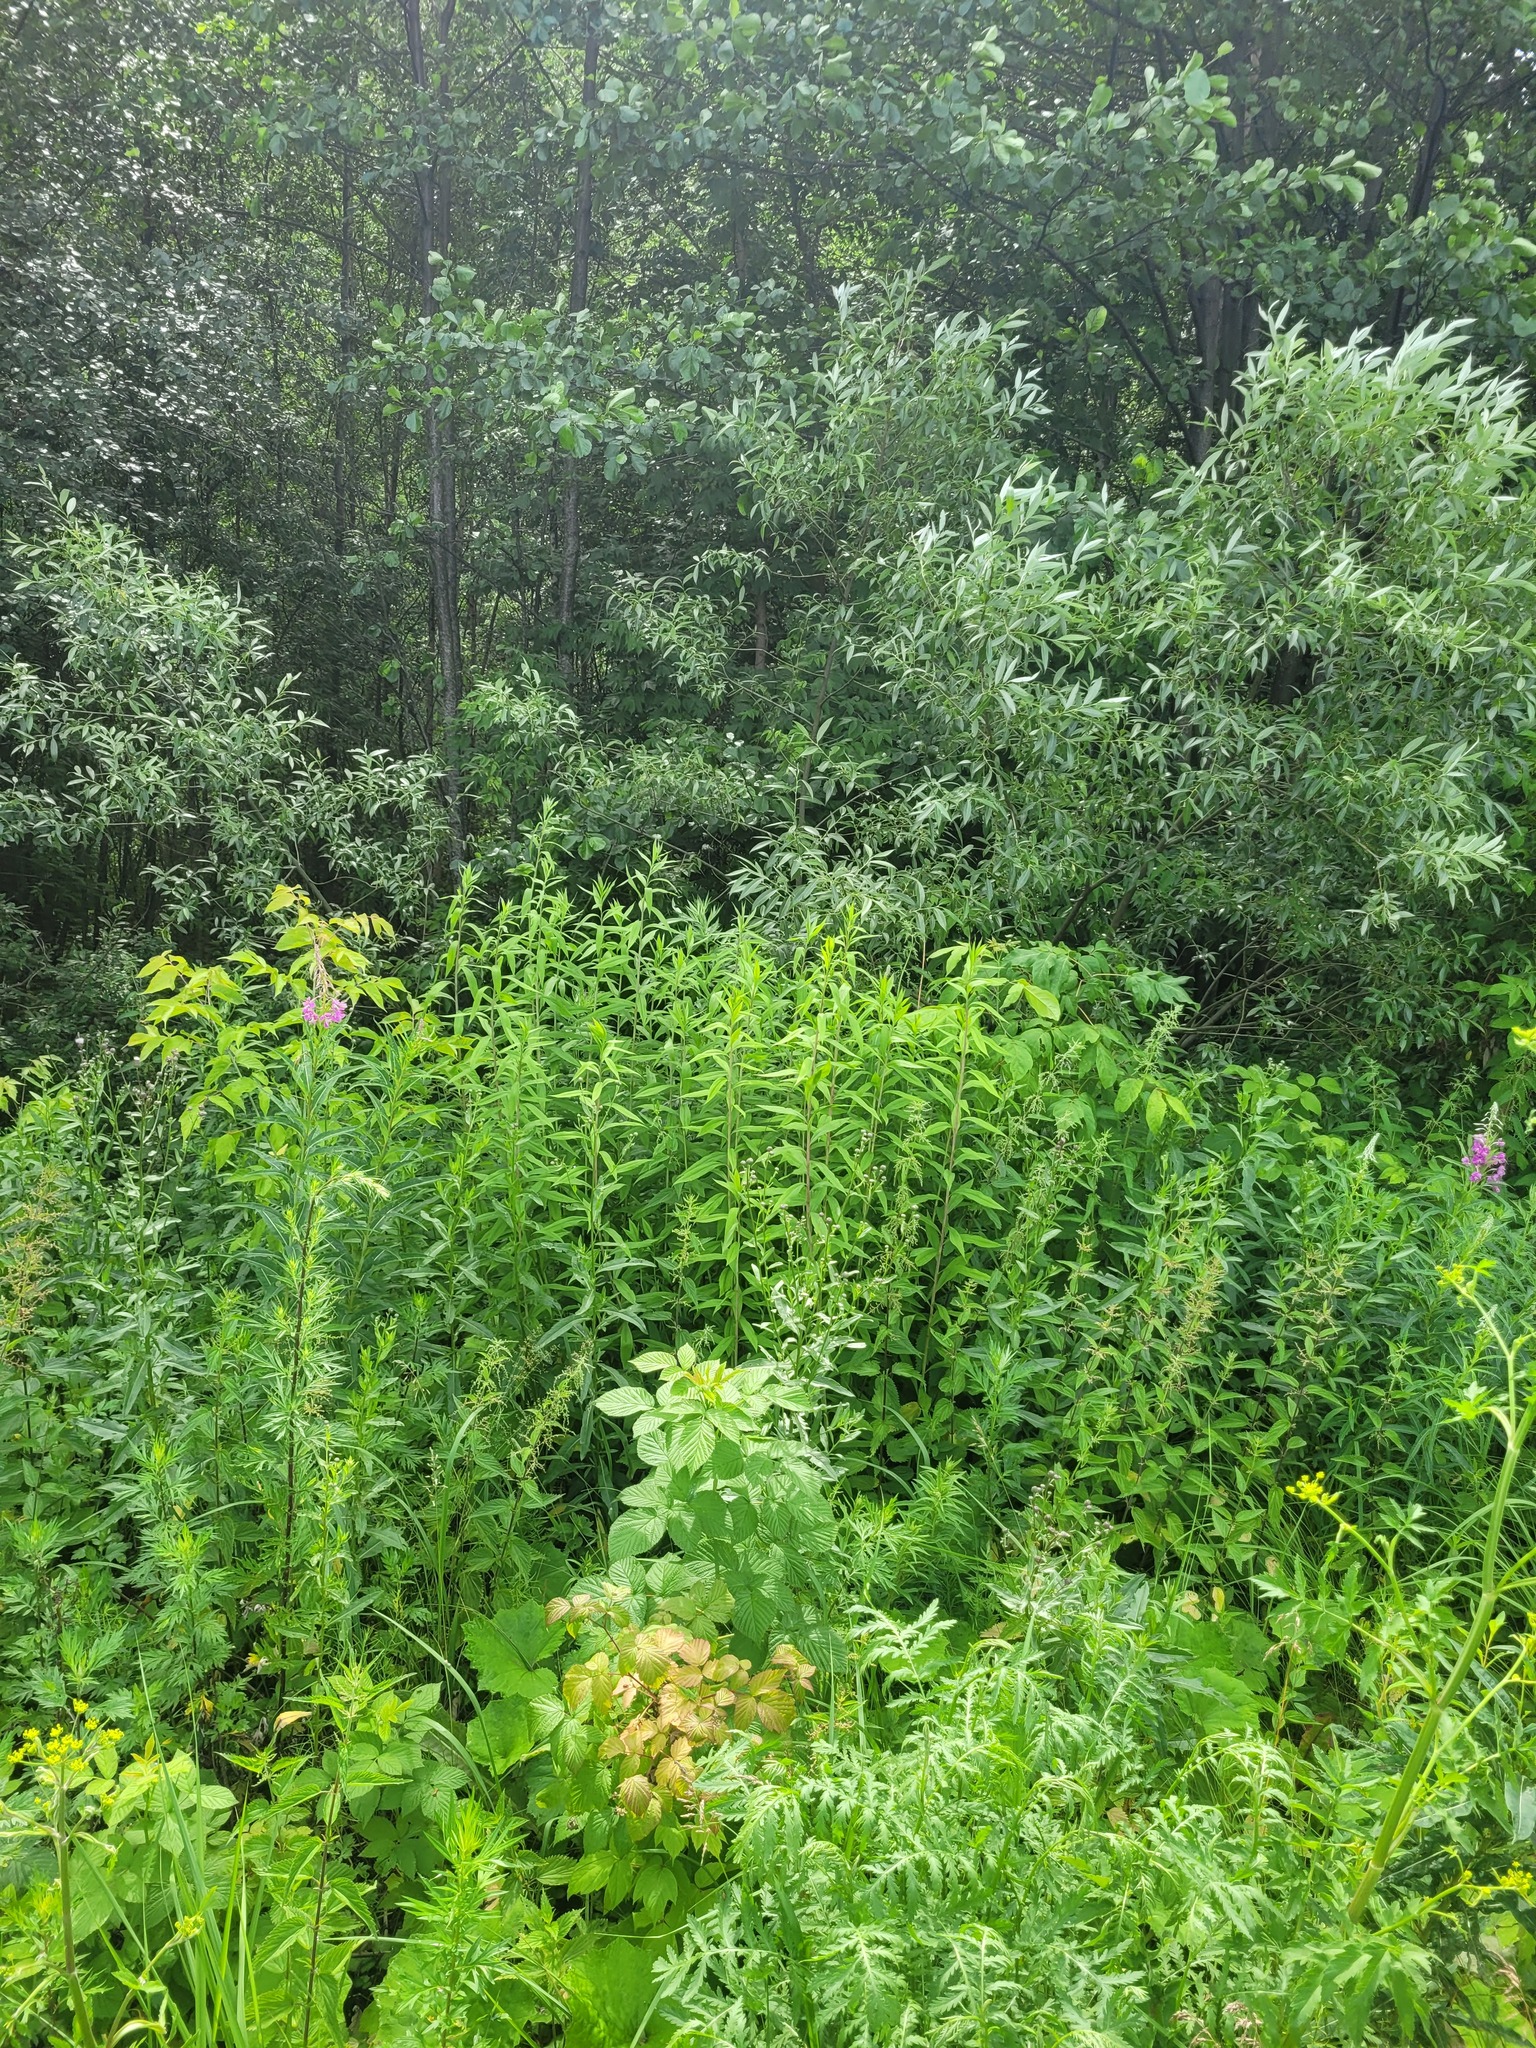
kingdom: Plantae
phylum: Tracheophyta
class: Magnoliopsida
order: Asterales
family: Asteraceae
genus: Solidago
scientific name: Solidago gigantea
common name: Giant goldenrod
